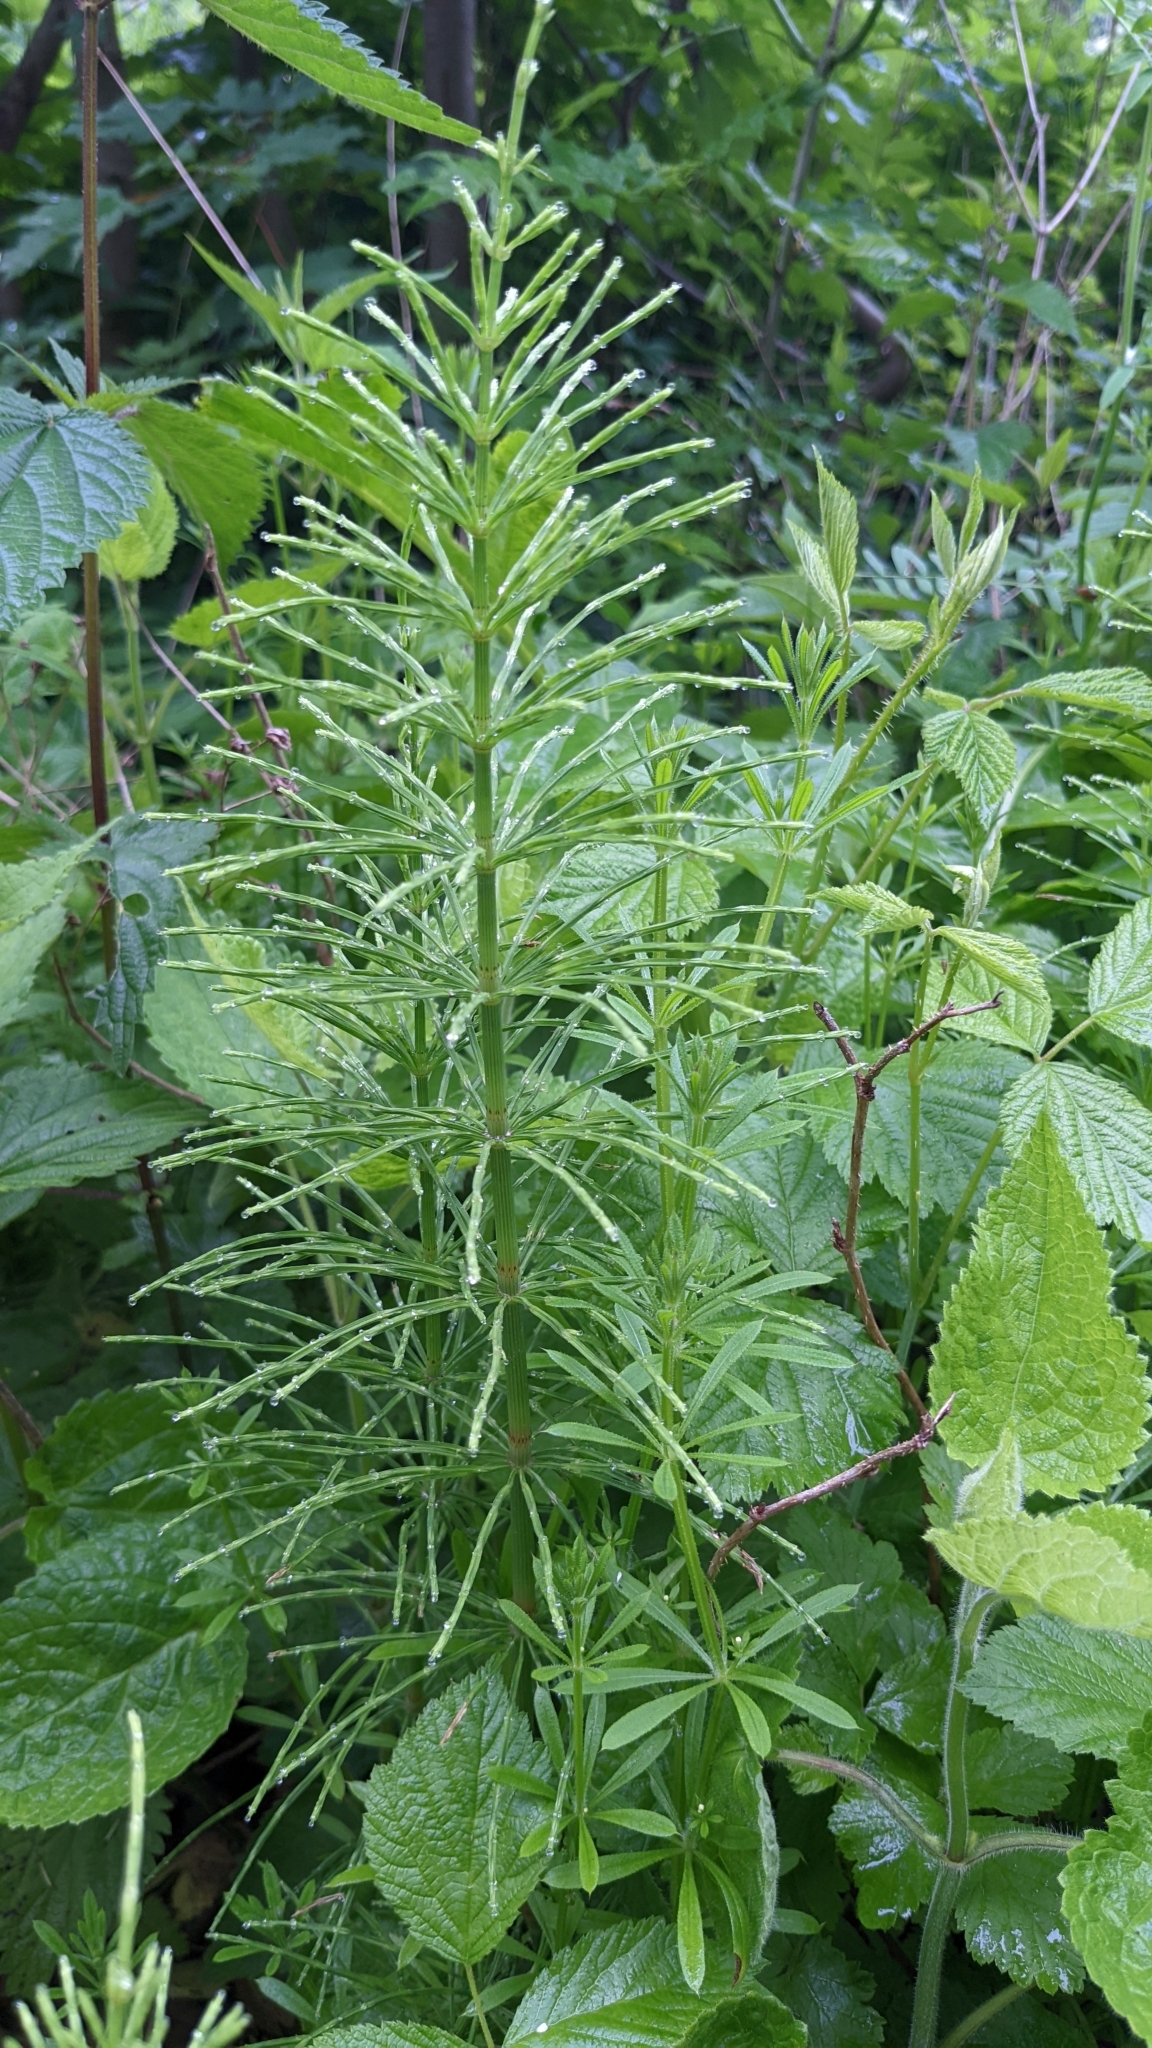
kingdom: Plantae
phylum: Tracheophyta
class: Polypodiopsida
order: Equisetales
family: Equisetaceae
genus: Equisetum
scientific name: Equisetum arvense
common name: Field horsetail
